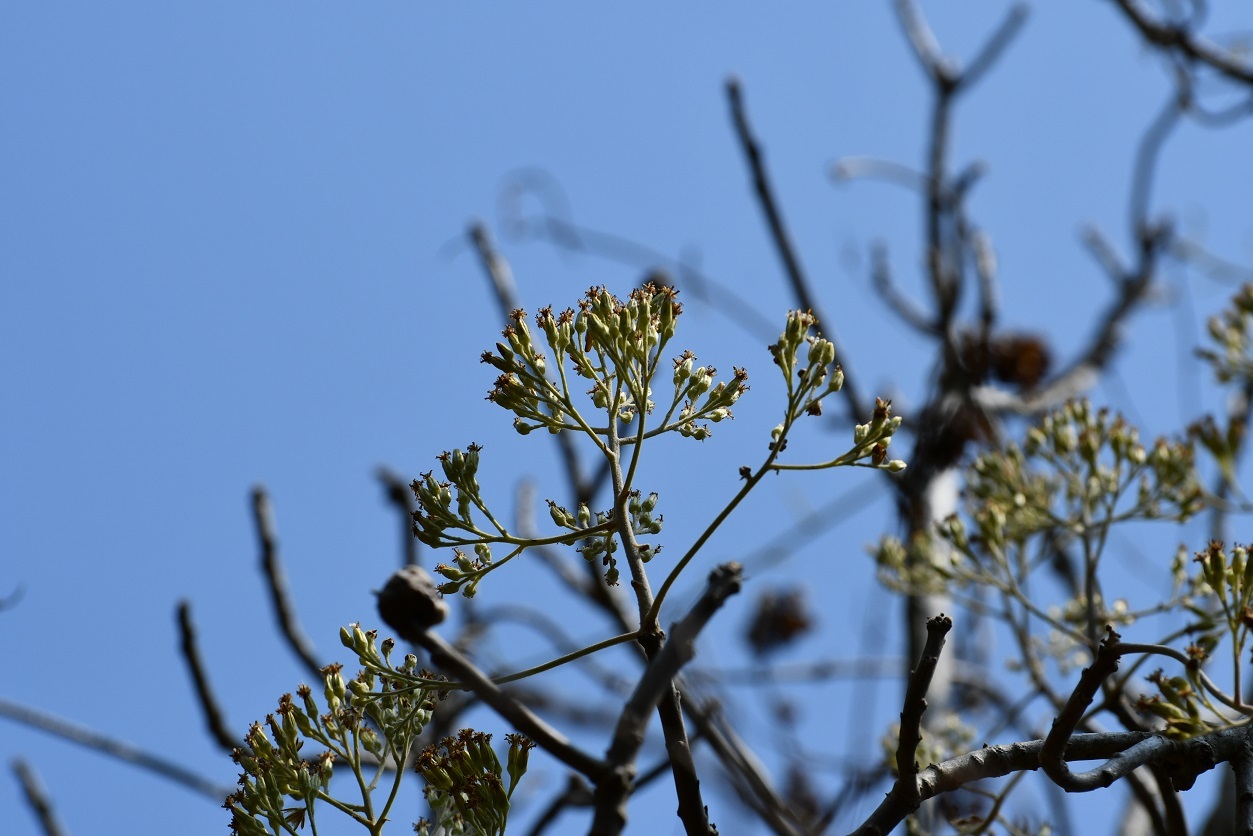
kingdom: Plantae
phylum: Tracheophyta
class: Magnoliopsida
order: Asterales
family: Asteraceae
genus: Pittocaulon
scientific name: Pittocaulon velatum
